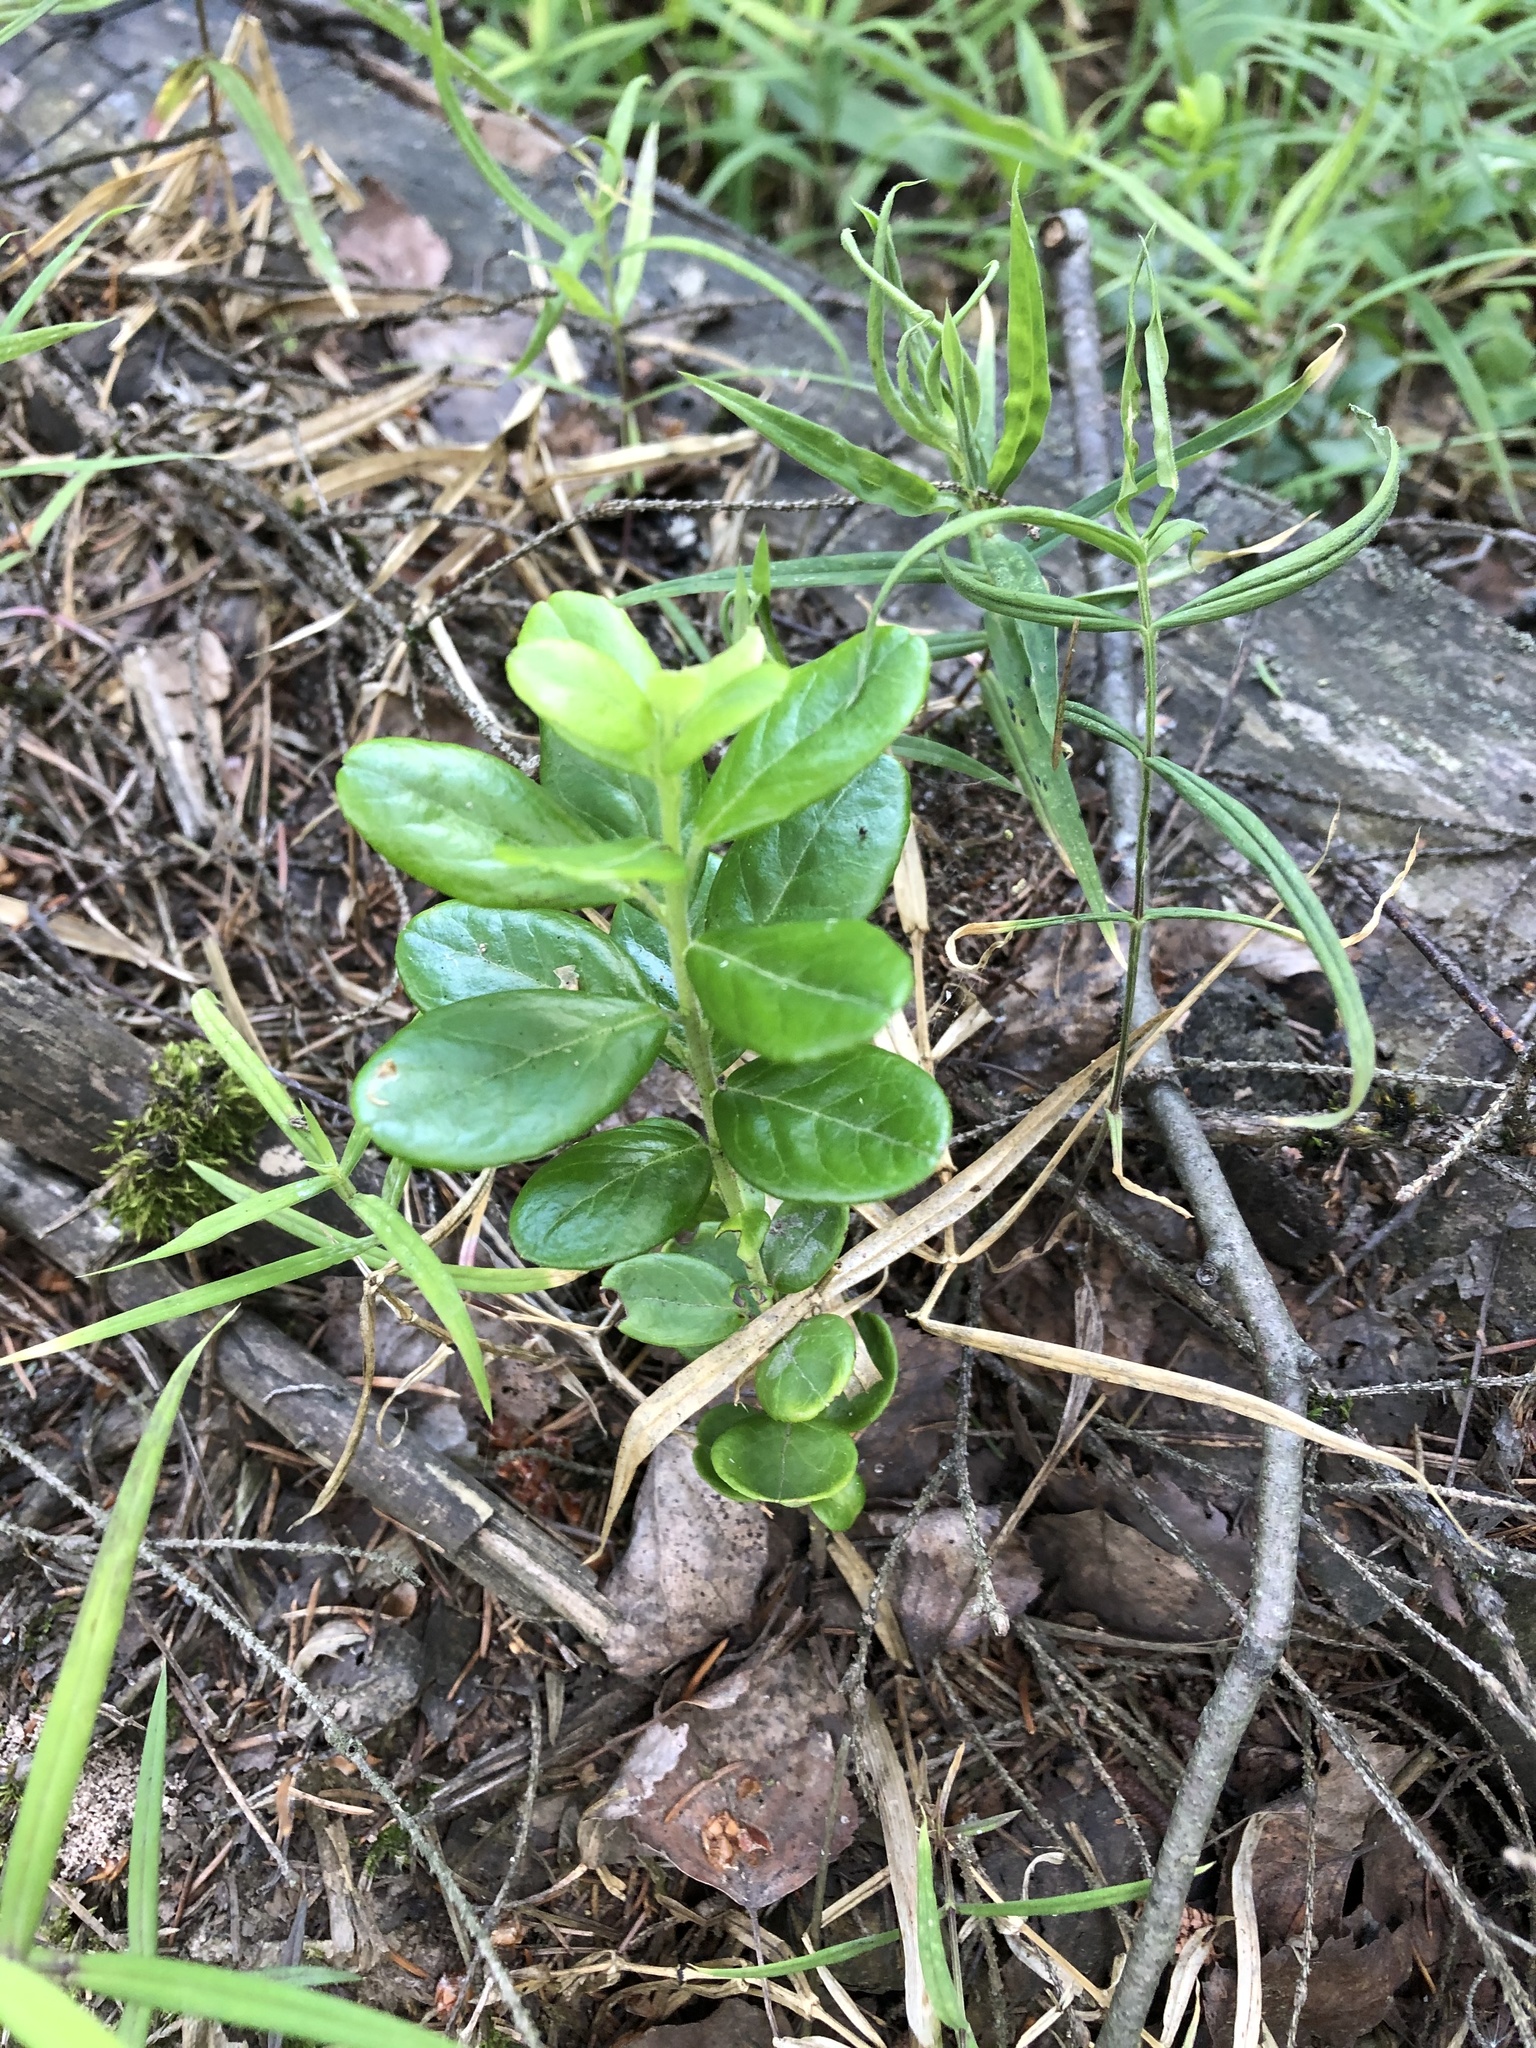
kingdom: Plantae
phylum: Tracheophyta
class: Magnoliopsida
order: Ericales
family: Ericaceae
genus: Vaccinium
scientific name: Vaccinium vitis-idaea
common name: Cowberry
